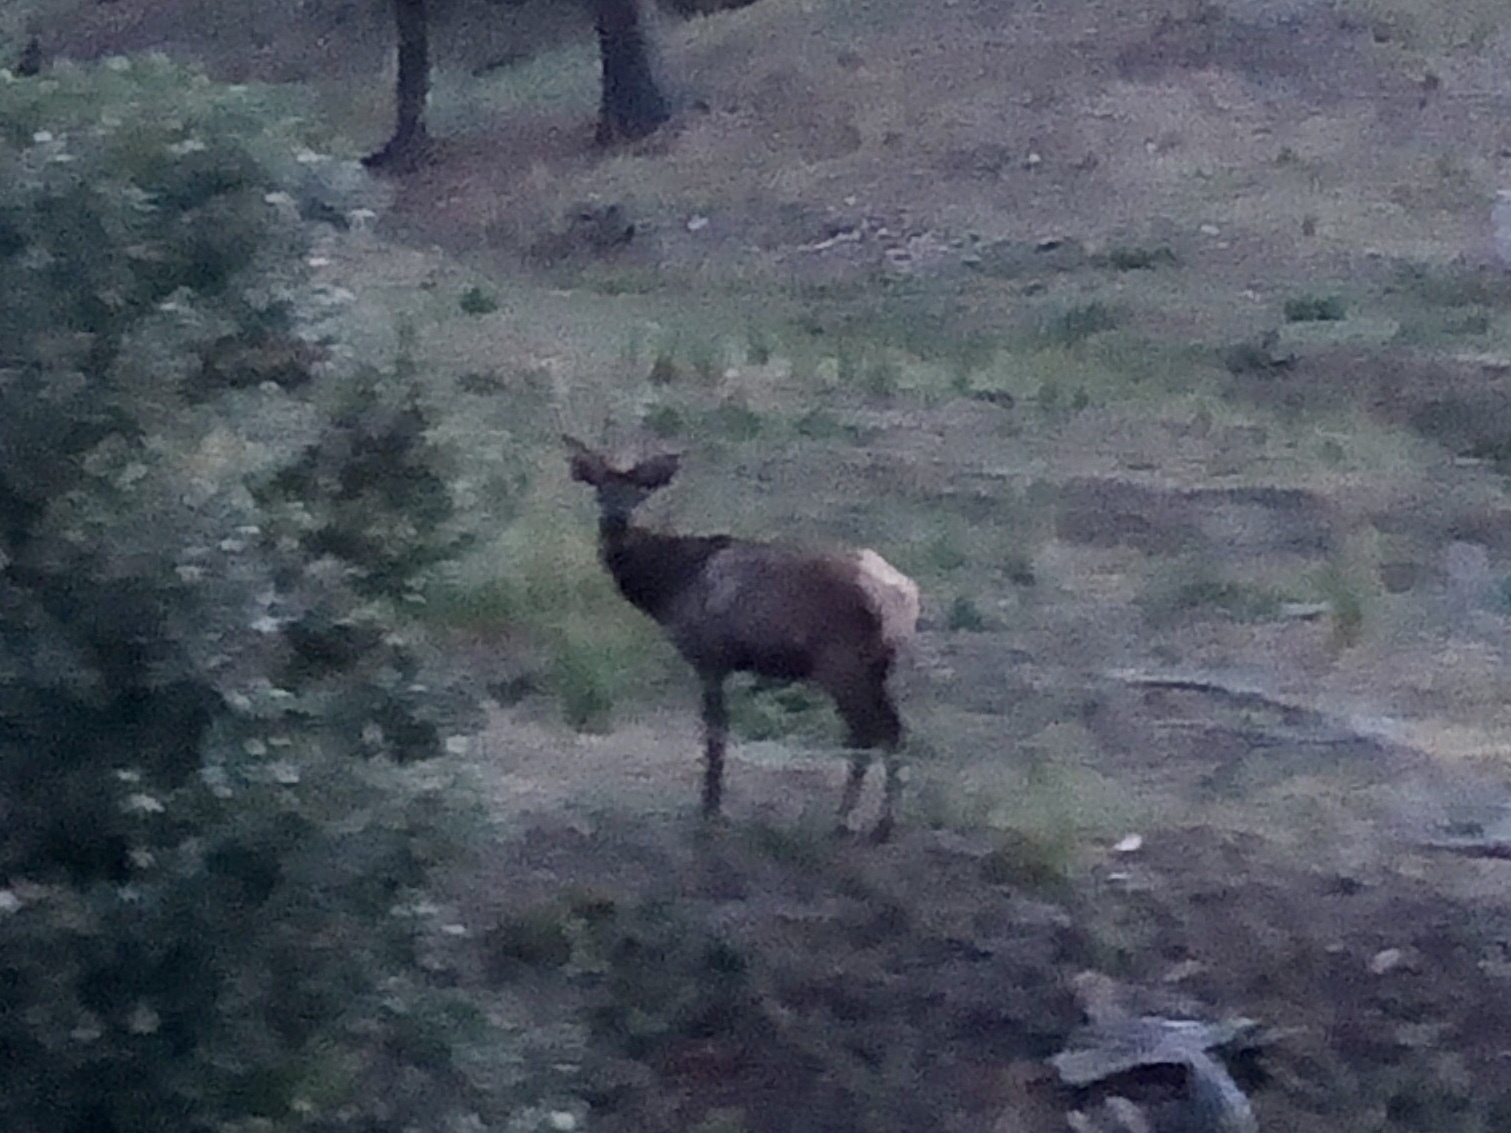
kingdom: Animalia
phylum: Chordata
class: Mammalia
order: Artiodactyla
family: Cervidae
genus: Cervus
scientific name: Cervus elaphus
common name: Red deer
